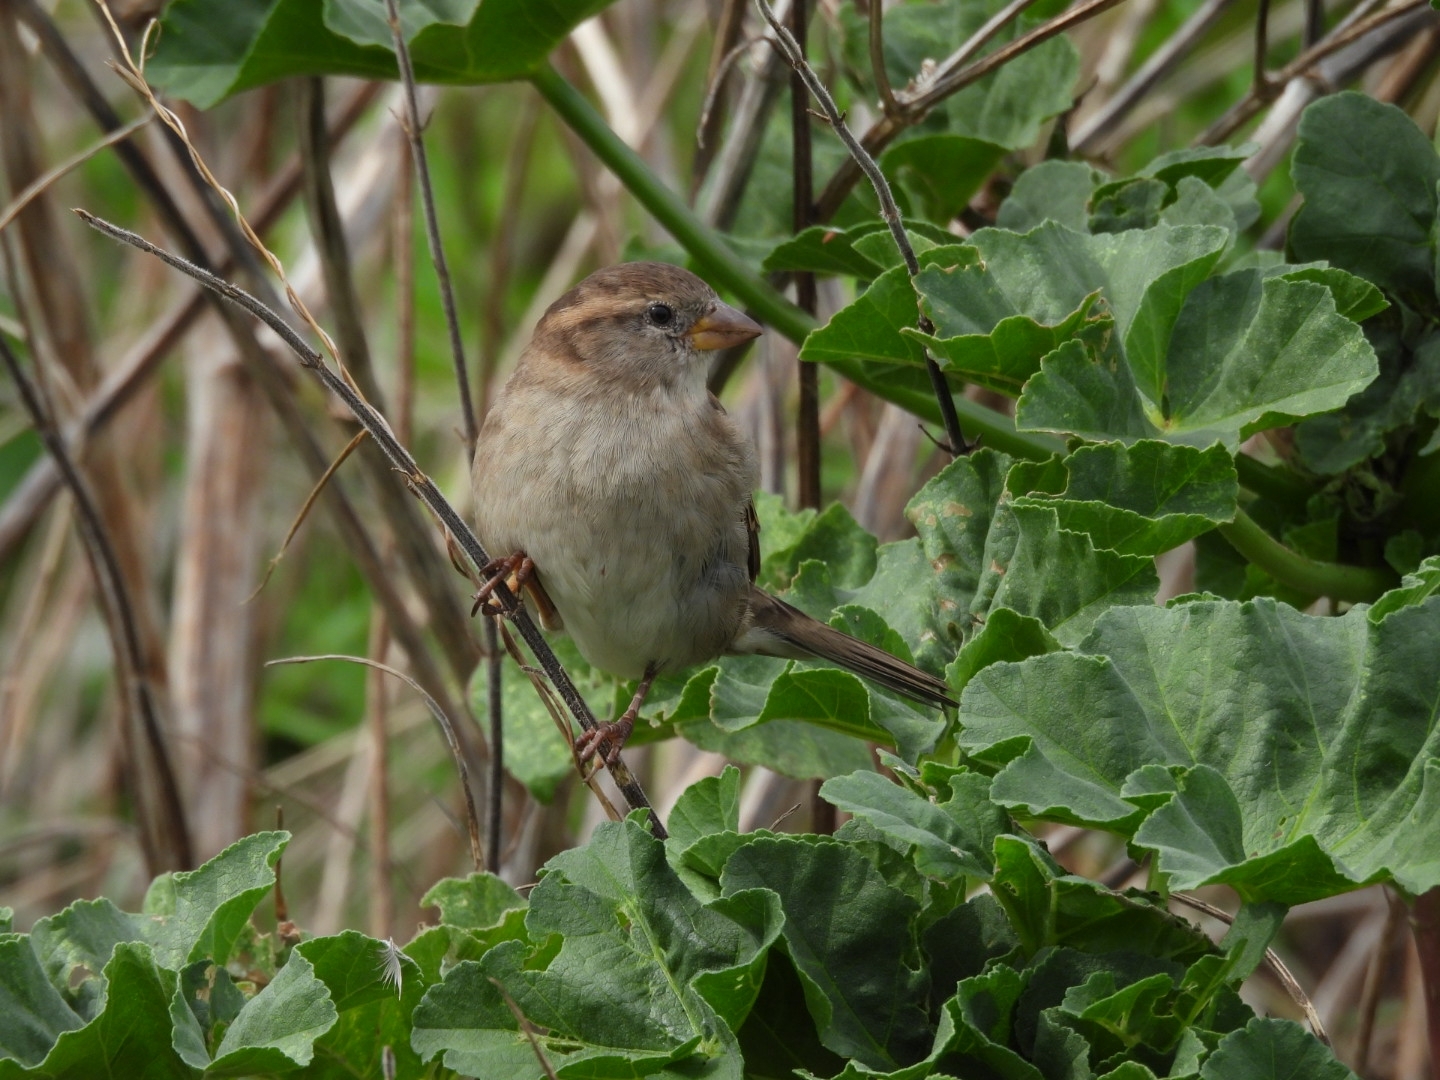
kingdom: Animalia
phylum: Chordata
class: Aves
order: Passeriformes
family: Passeridae
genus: Passer
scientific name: Passer domesticus
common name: House sparrow
